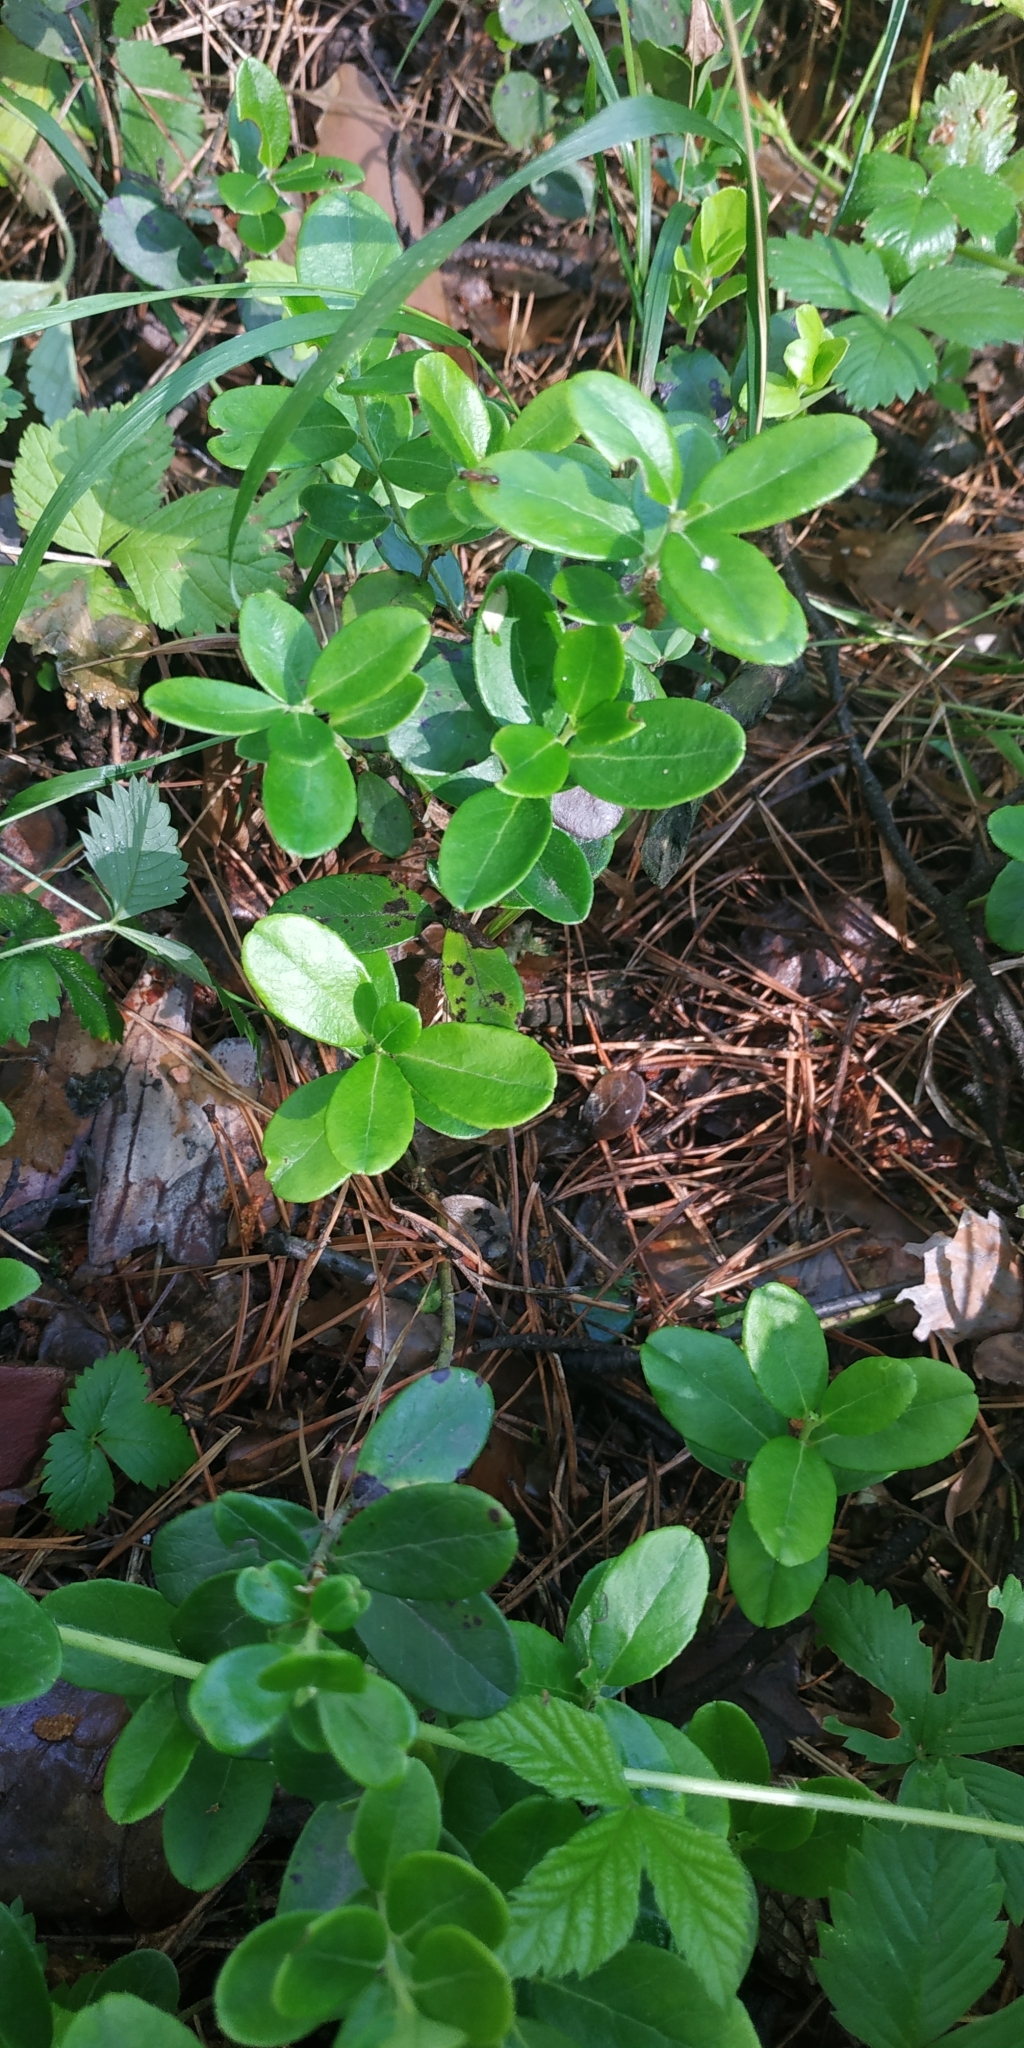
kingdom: Plantae
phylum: Tracheophyta
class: Magnoliopsida
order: Ericales
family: Ericaceae
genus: Vaccinium
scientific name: Vaccinium vitis-idaea
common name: Cowberry
